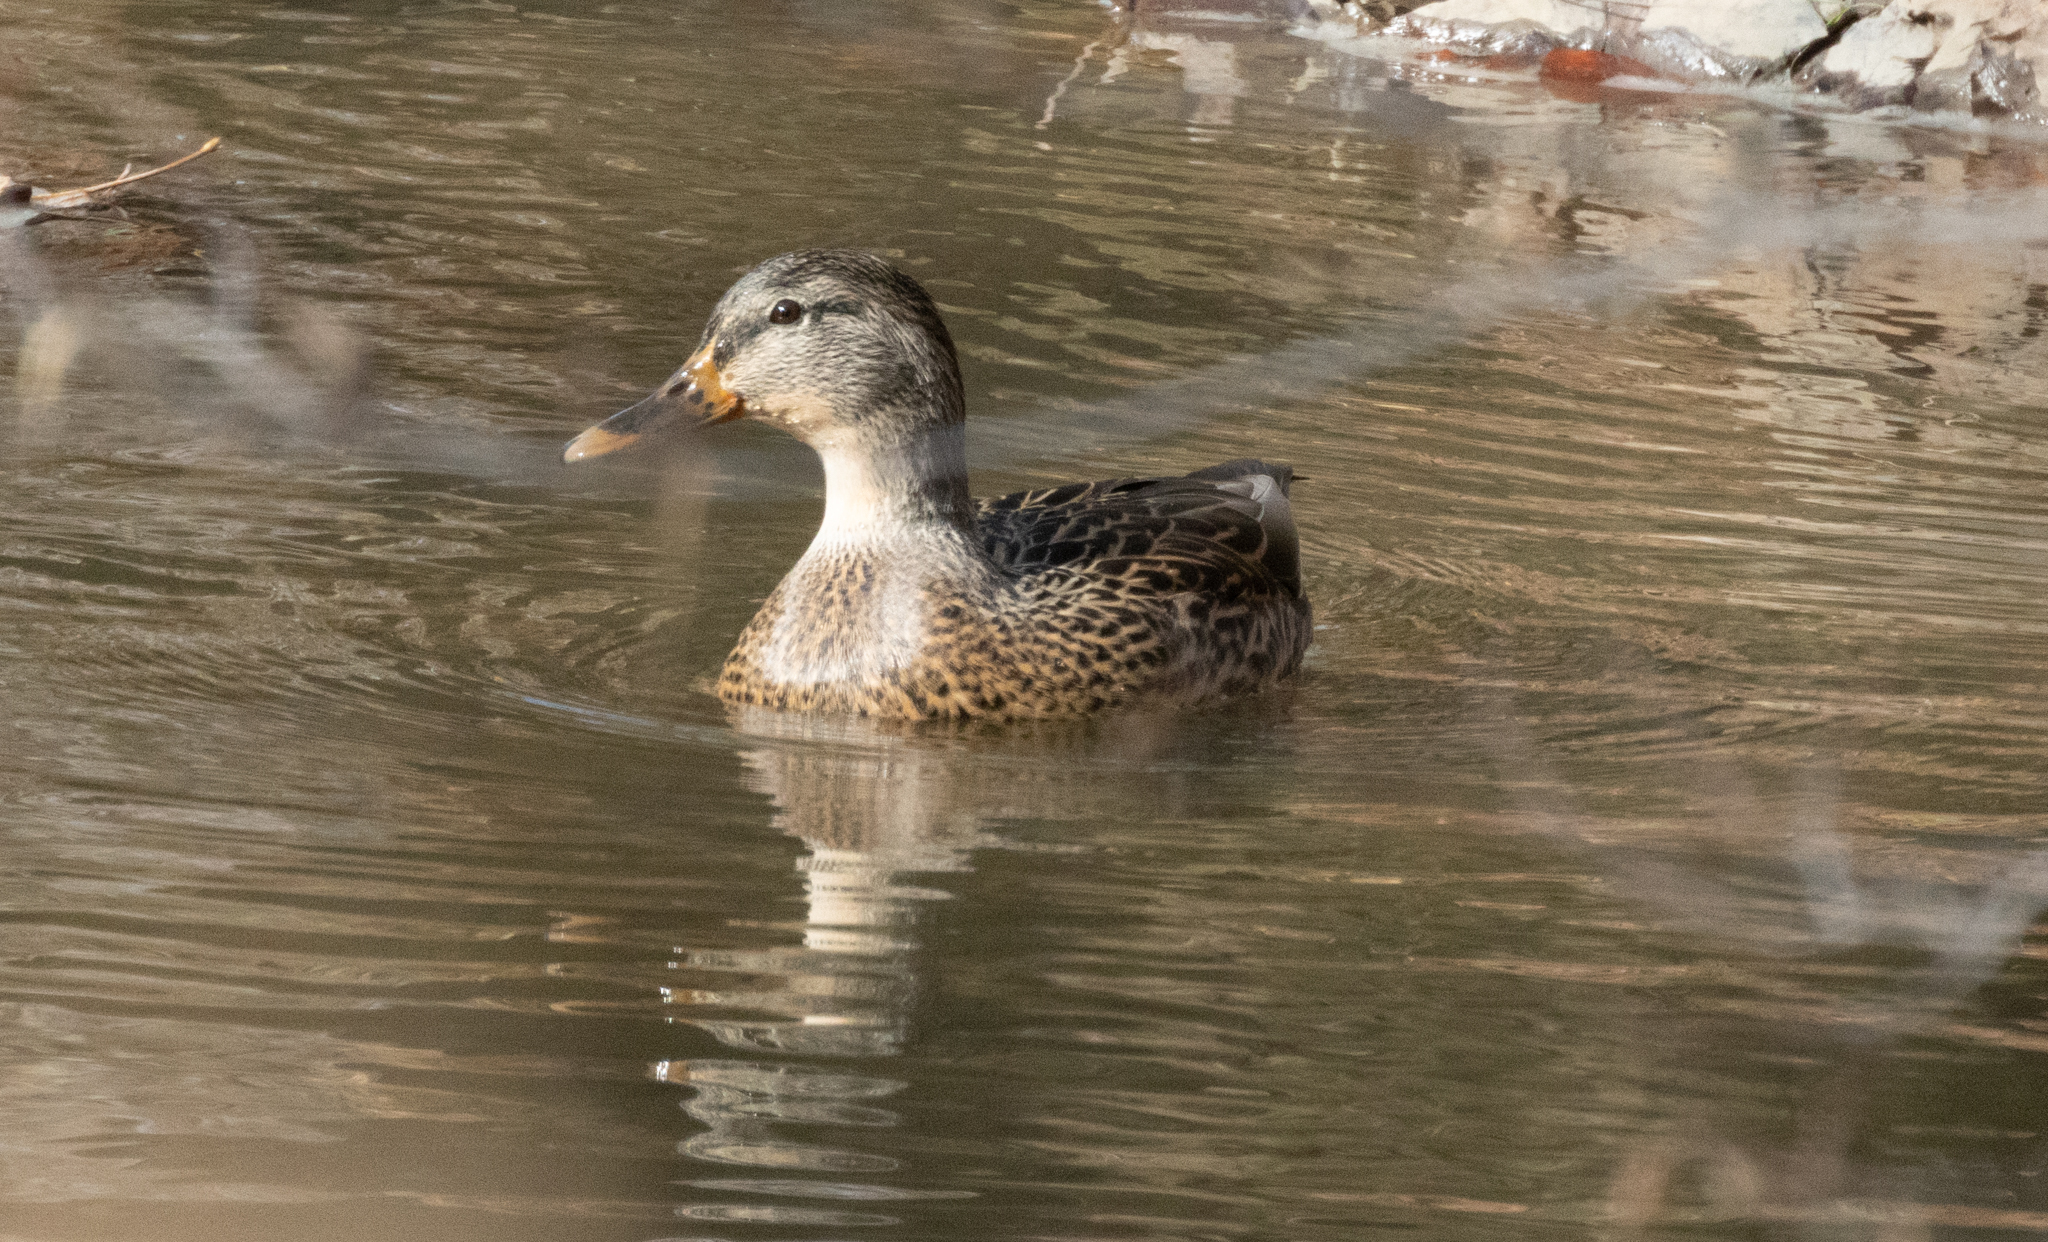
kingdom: Animalia
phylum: Chordata
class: Aves
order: Anseriformes
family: Anatidae
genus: Anas
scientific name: Anas platyrhynchos
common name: Mallard
